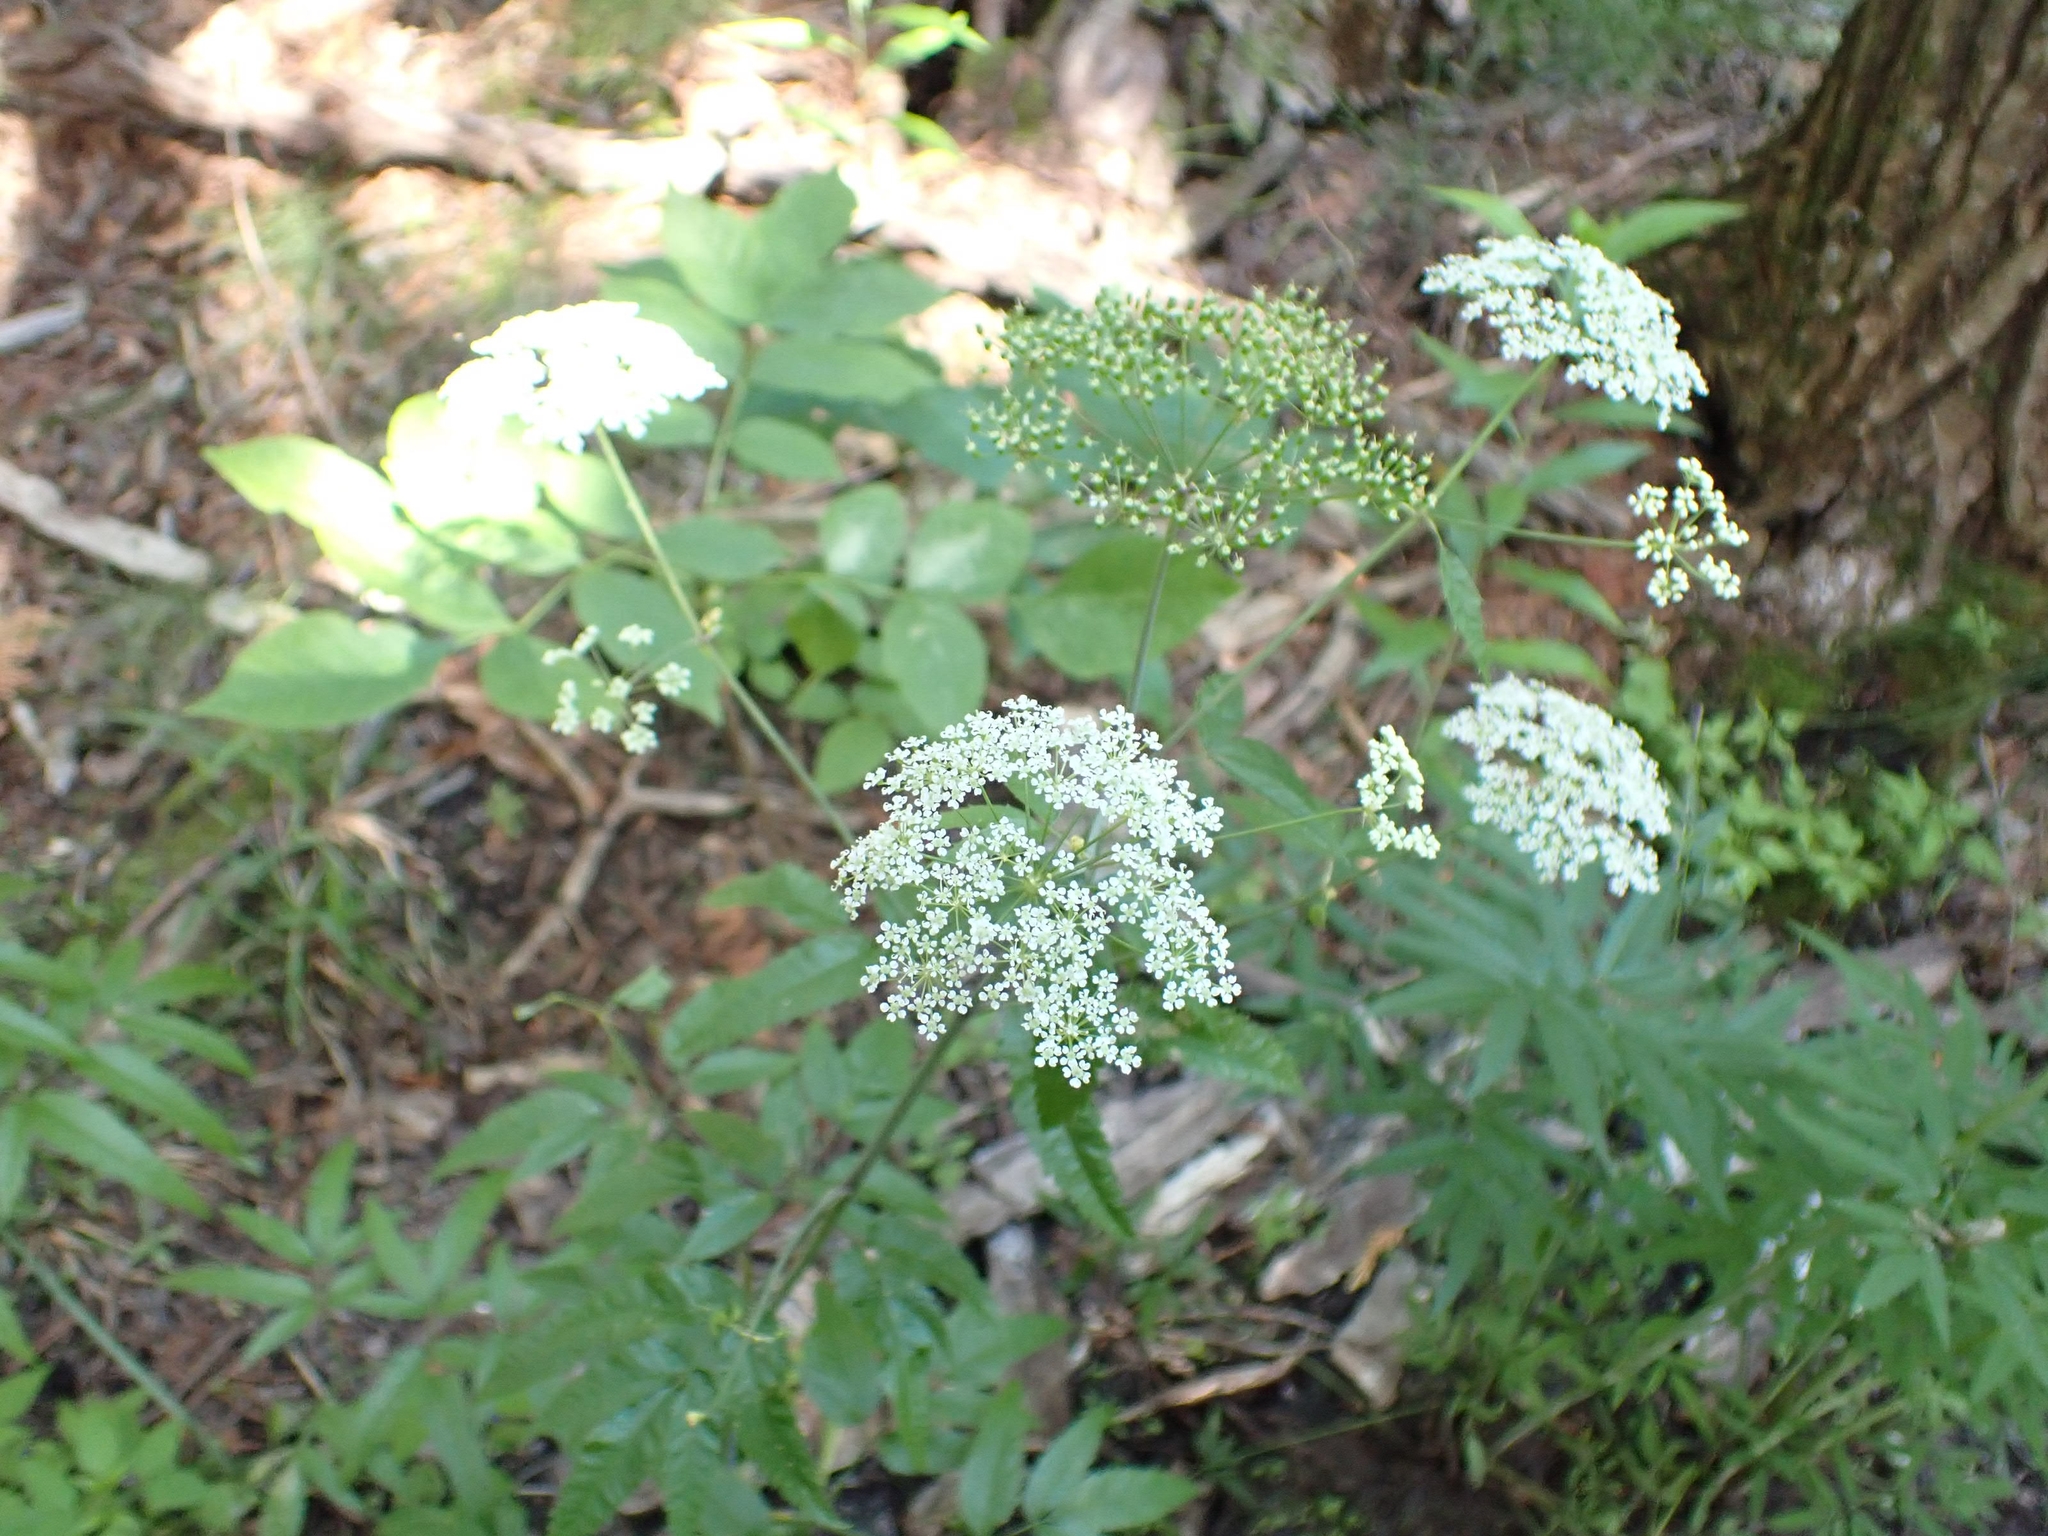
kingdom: Plantae
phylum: Tracheophyta
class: Magnoliopsida
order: Apiales
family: Apiaceae
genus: Cicuta
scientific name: Cicuta maculata
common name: Spotted cowbane
